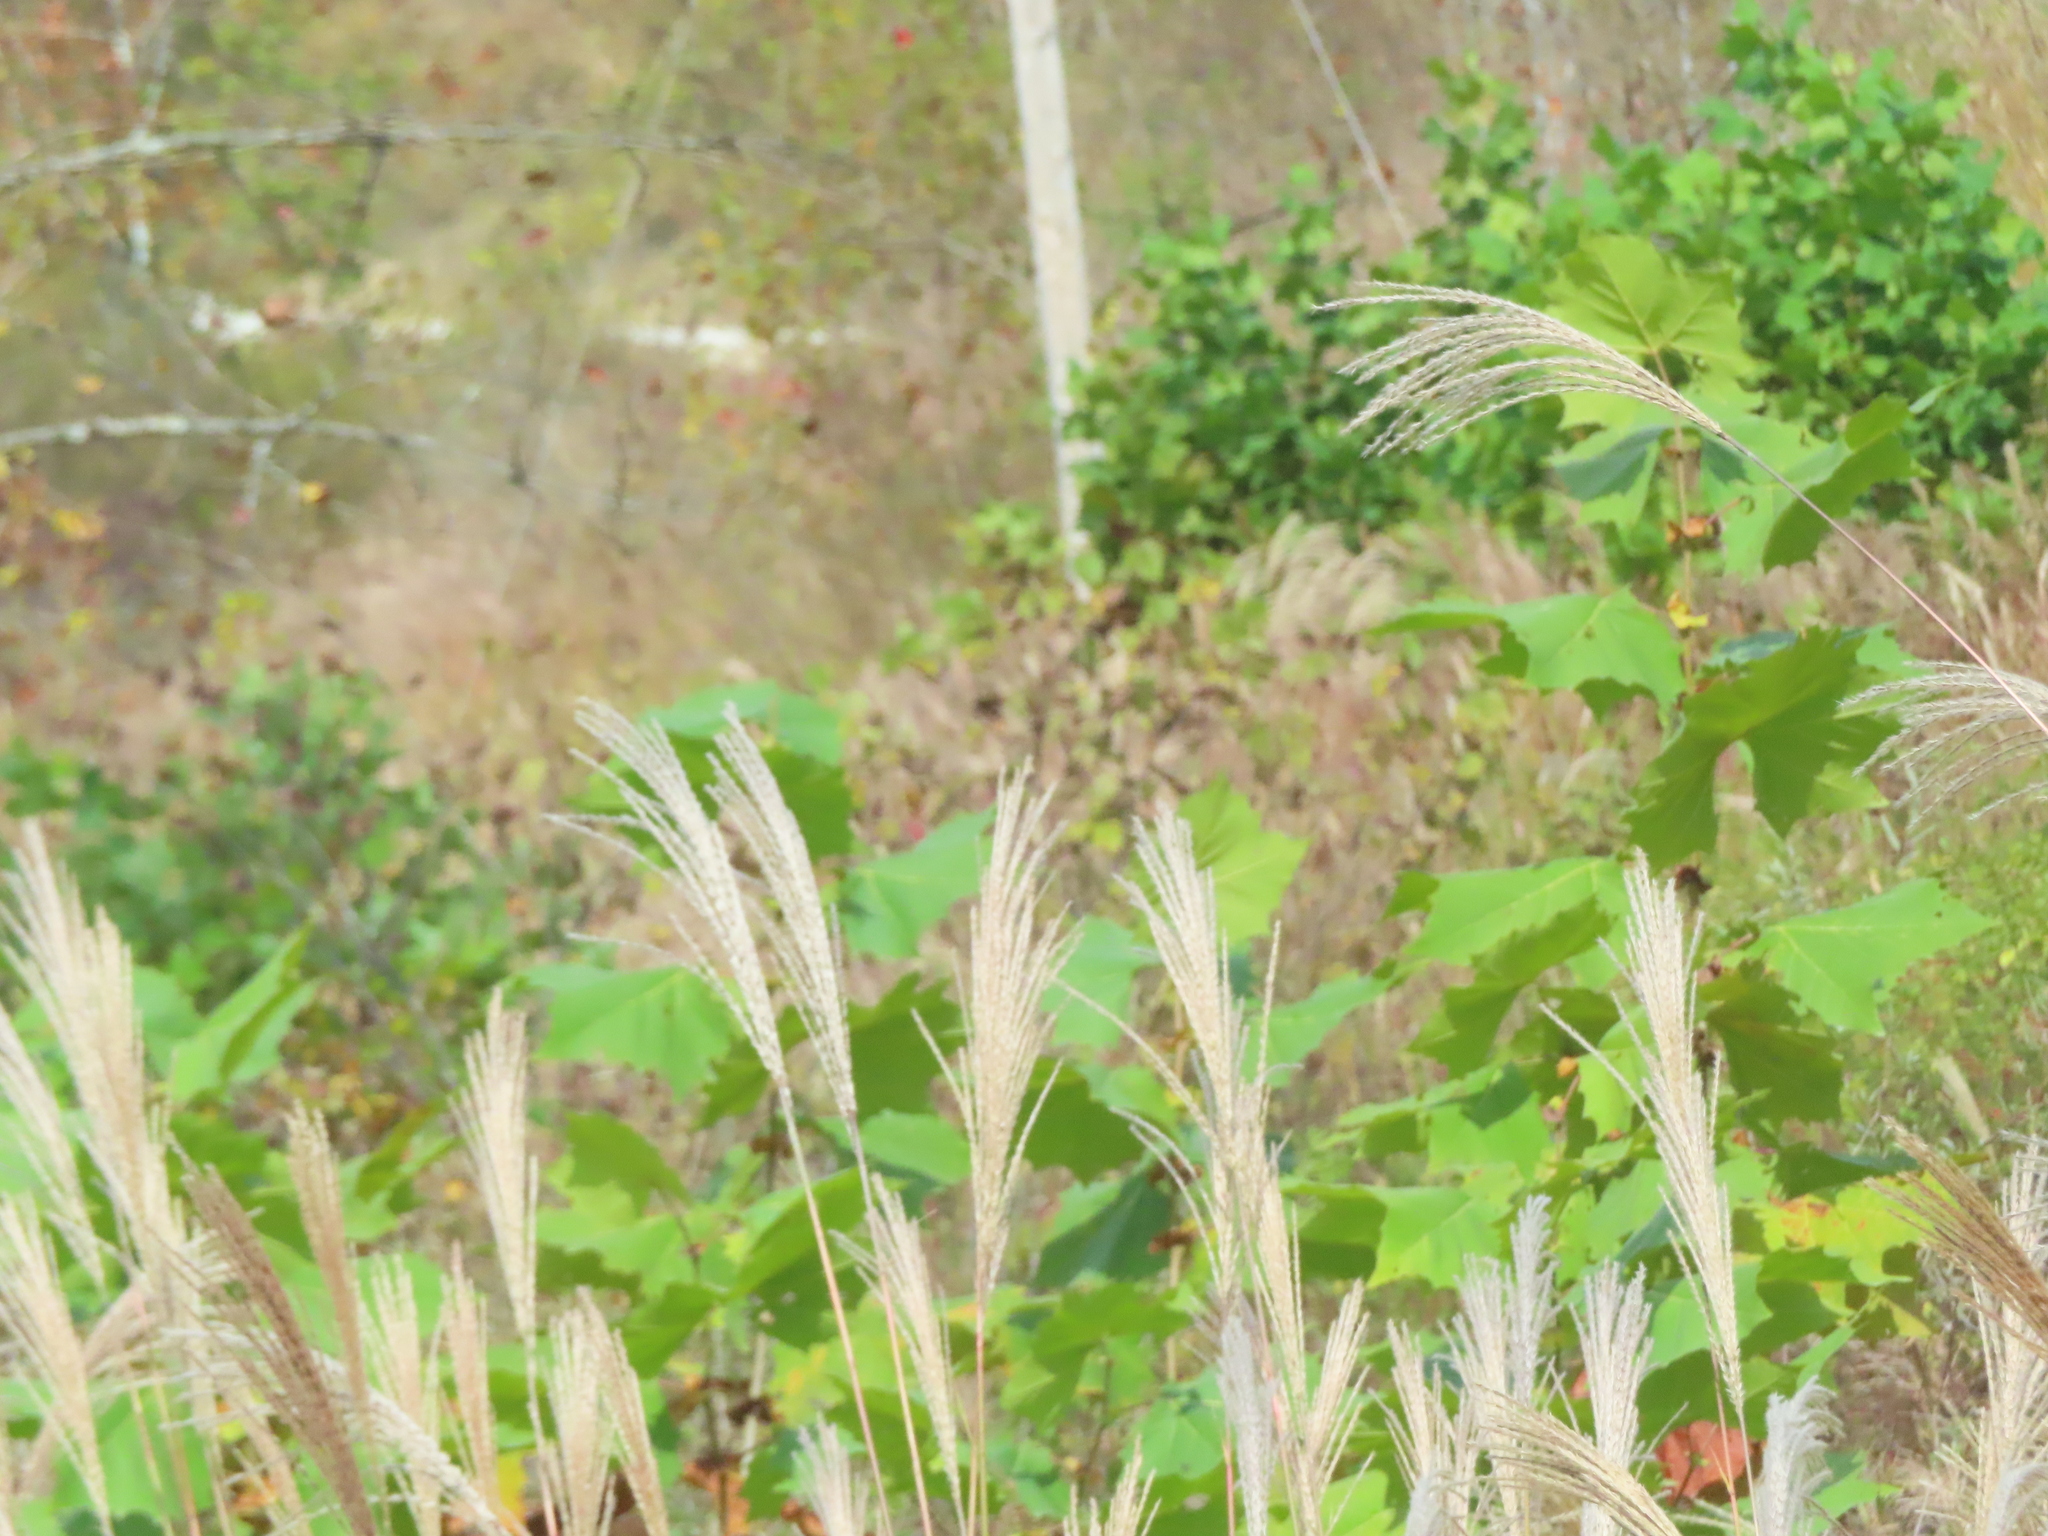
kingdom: Plantae
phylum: Tracheophyta
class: Liliopsida
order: Poales
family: Poaceae
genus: Miscanthus
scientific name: Miscanthus sinensis
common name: Chinese silvergrass
